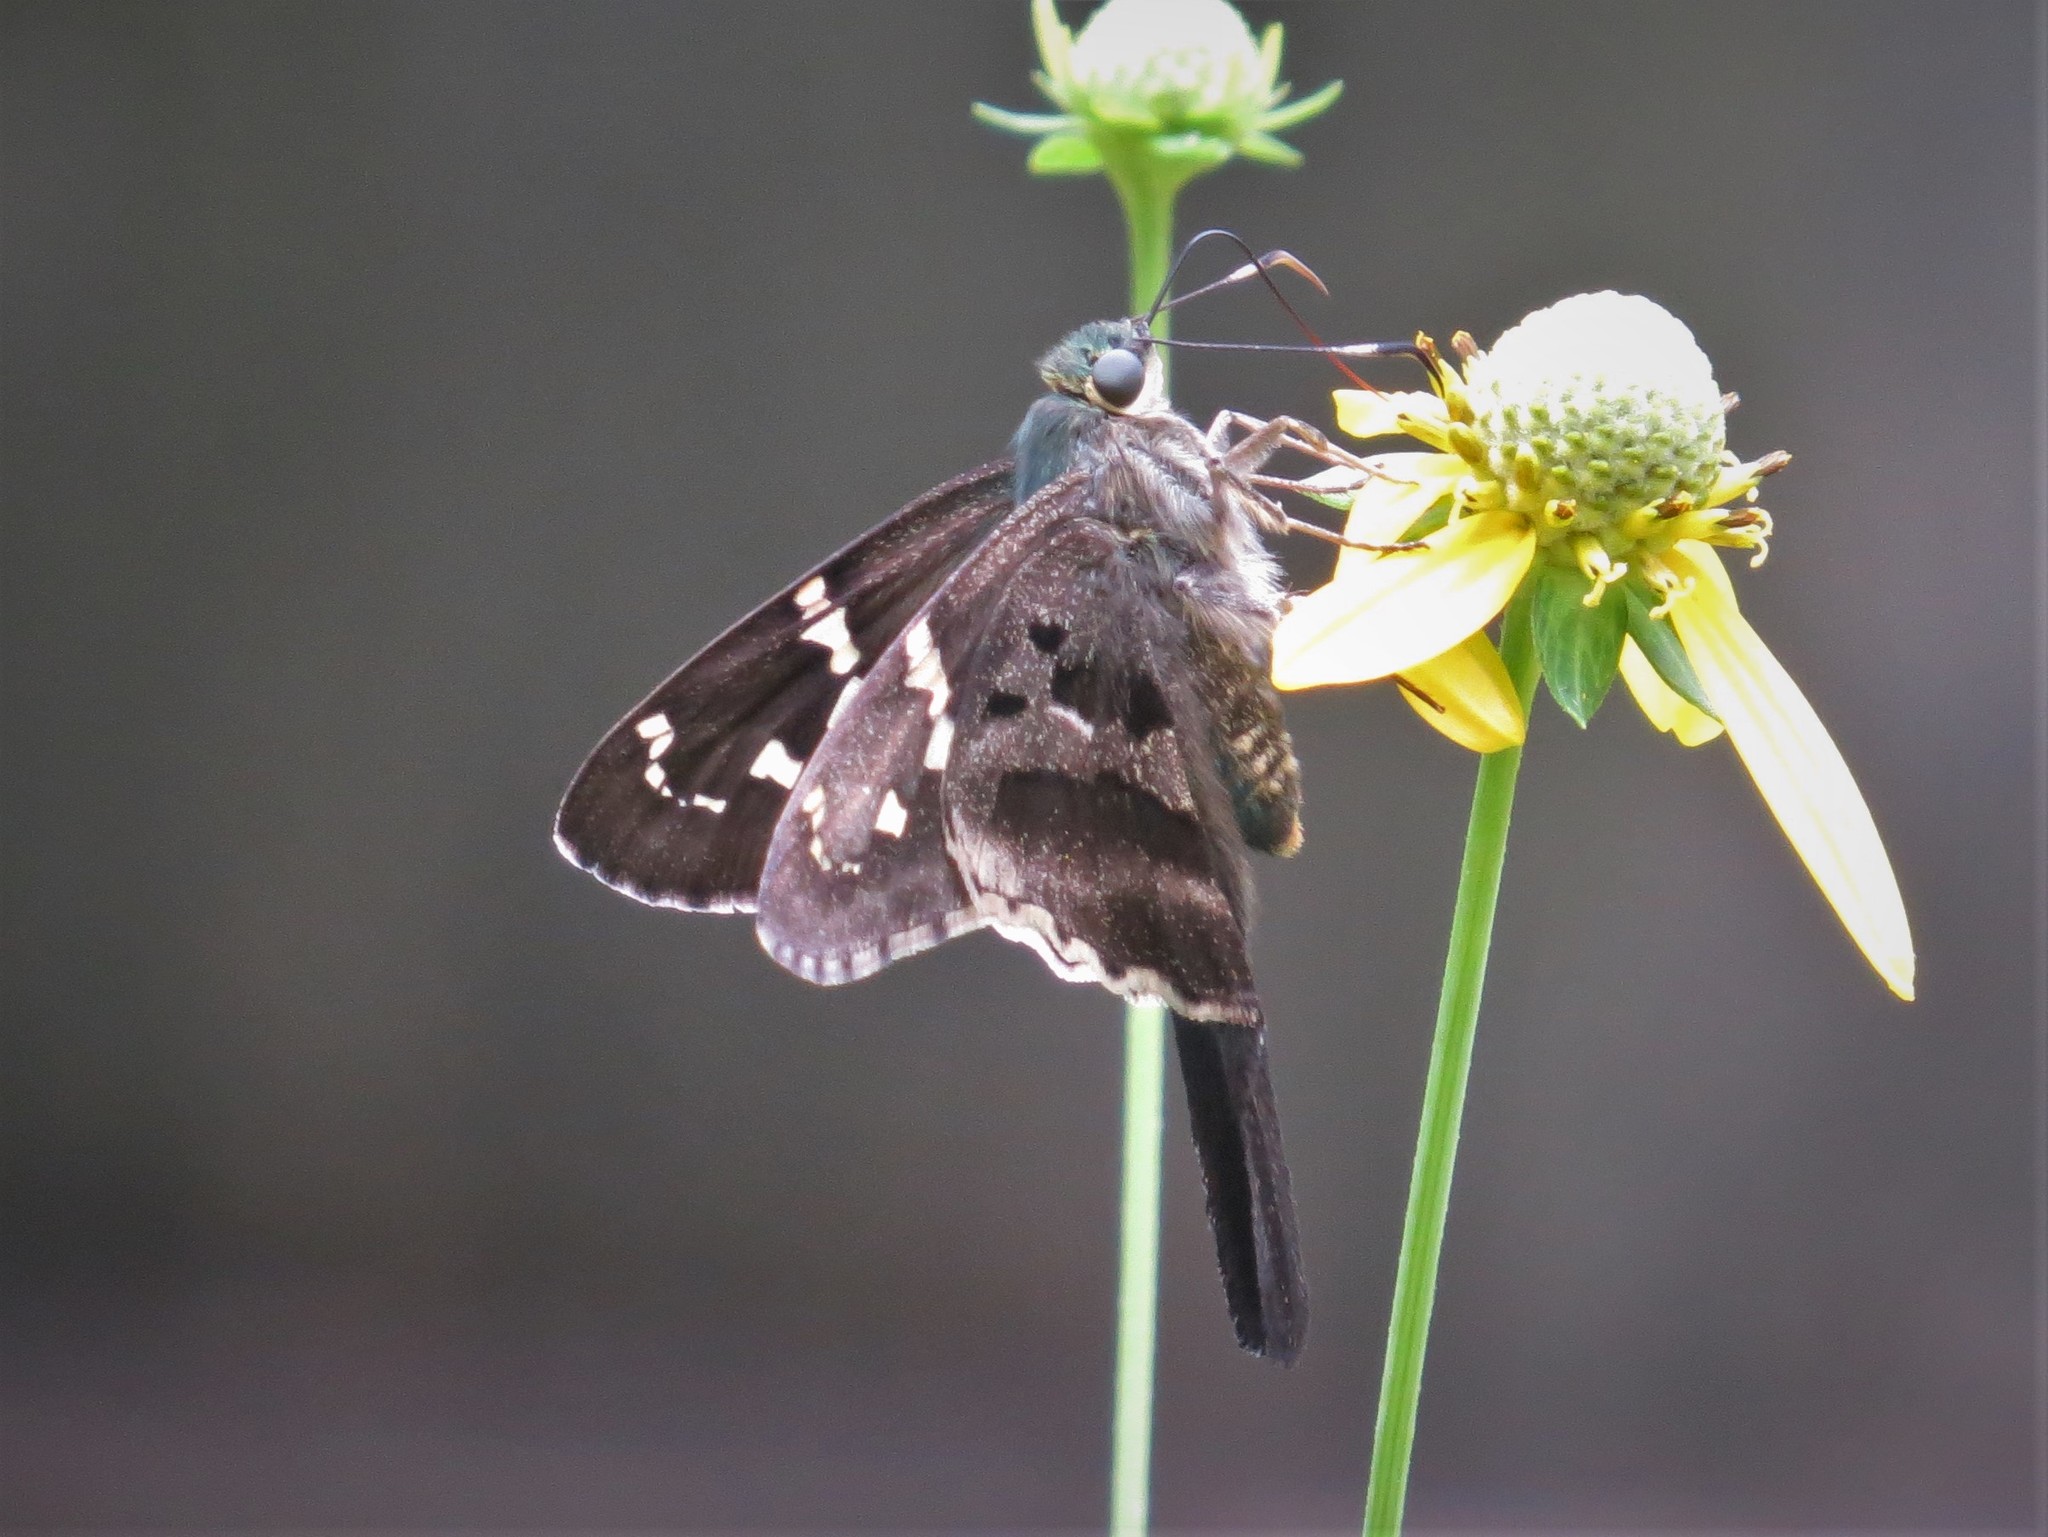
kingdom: Animalia
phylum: Arthropoda
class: Insecta
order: Lepidoptera
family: Hesperiidae
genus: Urbanus
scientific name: Urbanus proteus
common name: Long-tailed skipper
